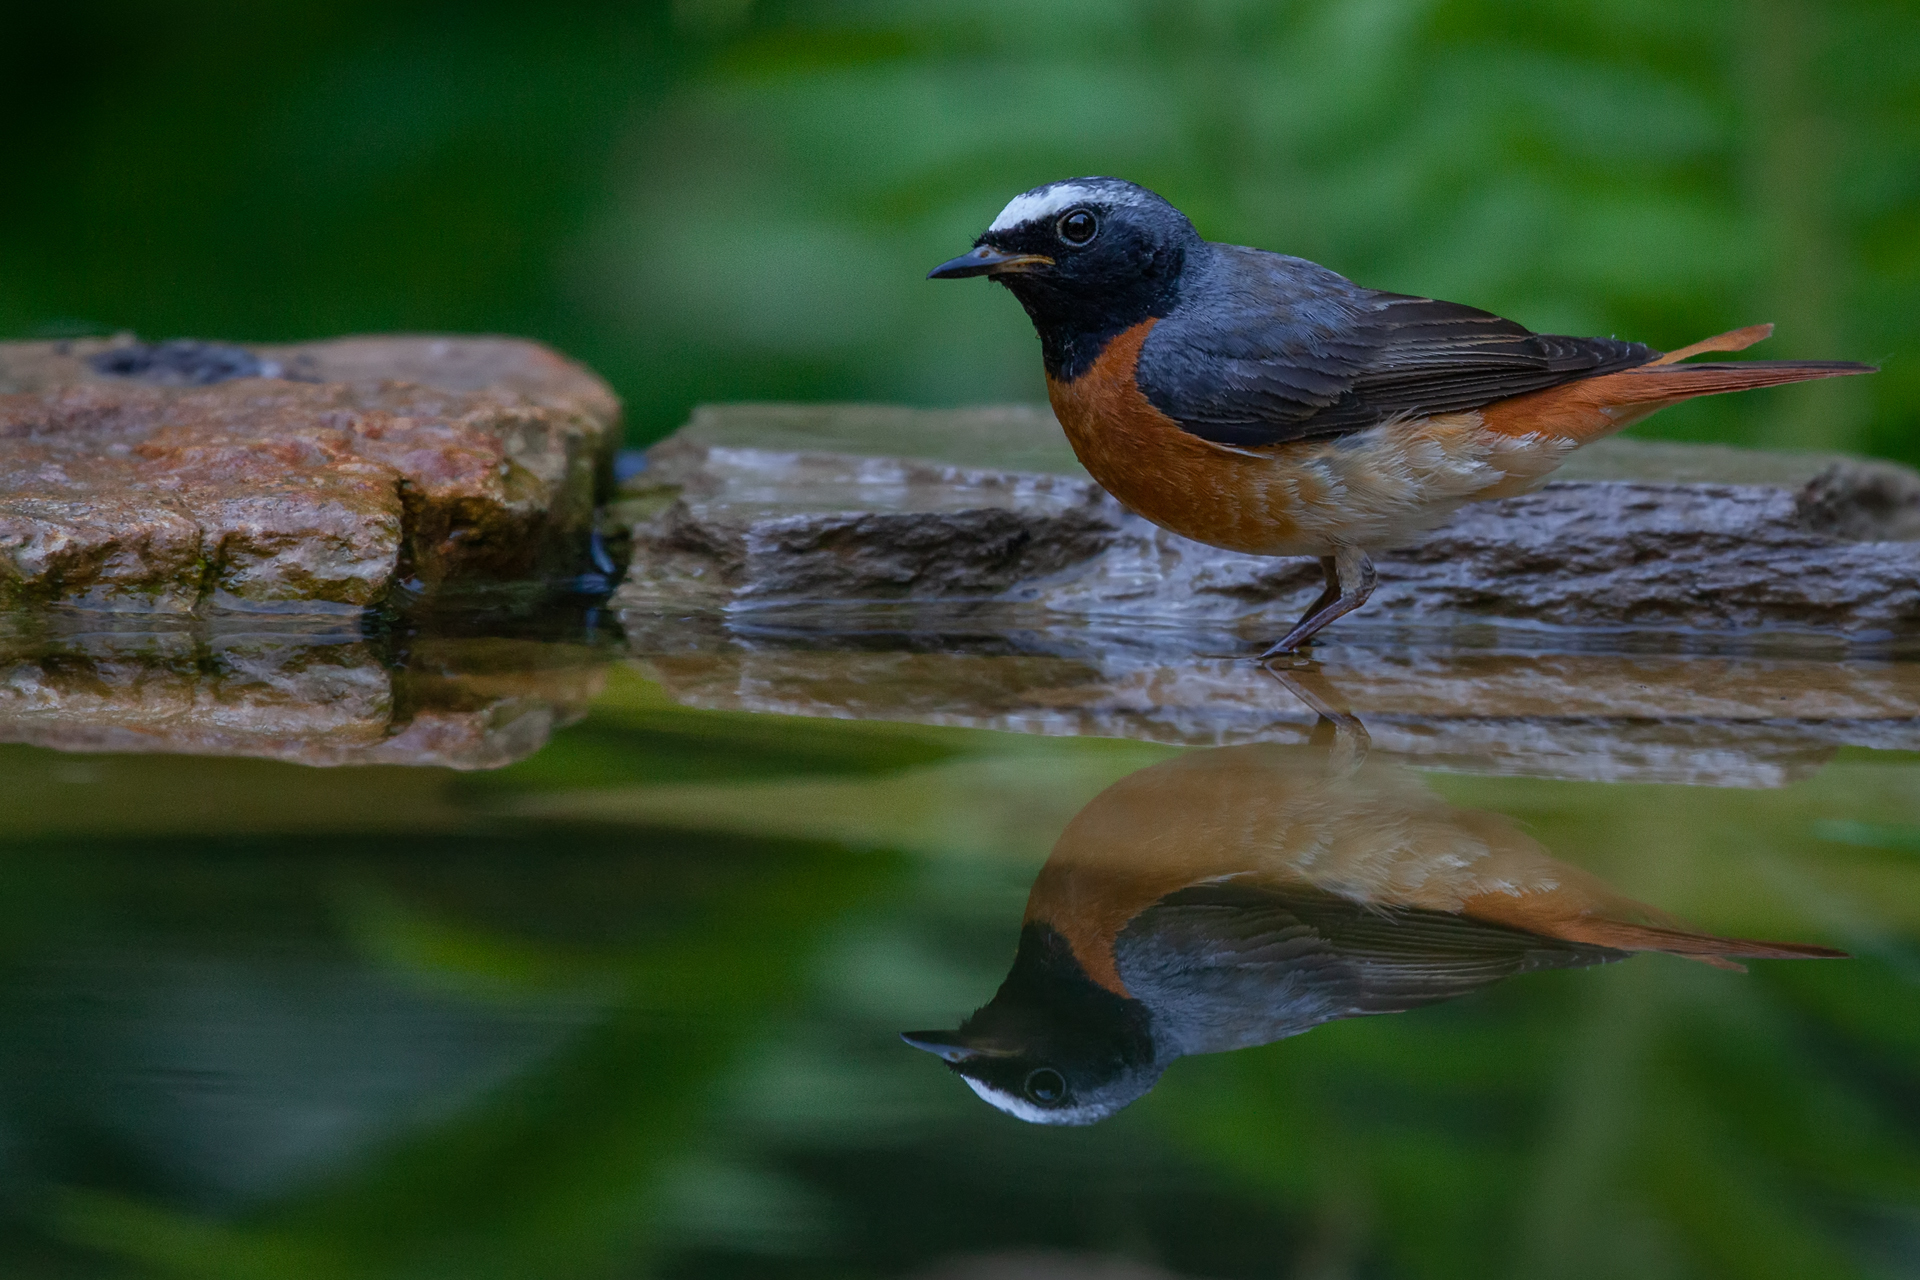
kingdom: Animalia
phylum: Chordata
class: Aves
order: Passeriformes
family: Muscicapidae
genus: Phoenicurus
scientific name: Phoenicurus phoenicurus
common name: Common redstart
